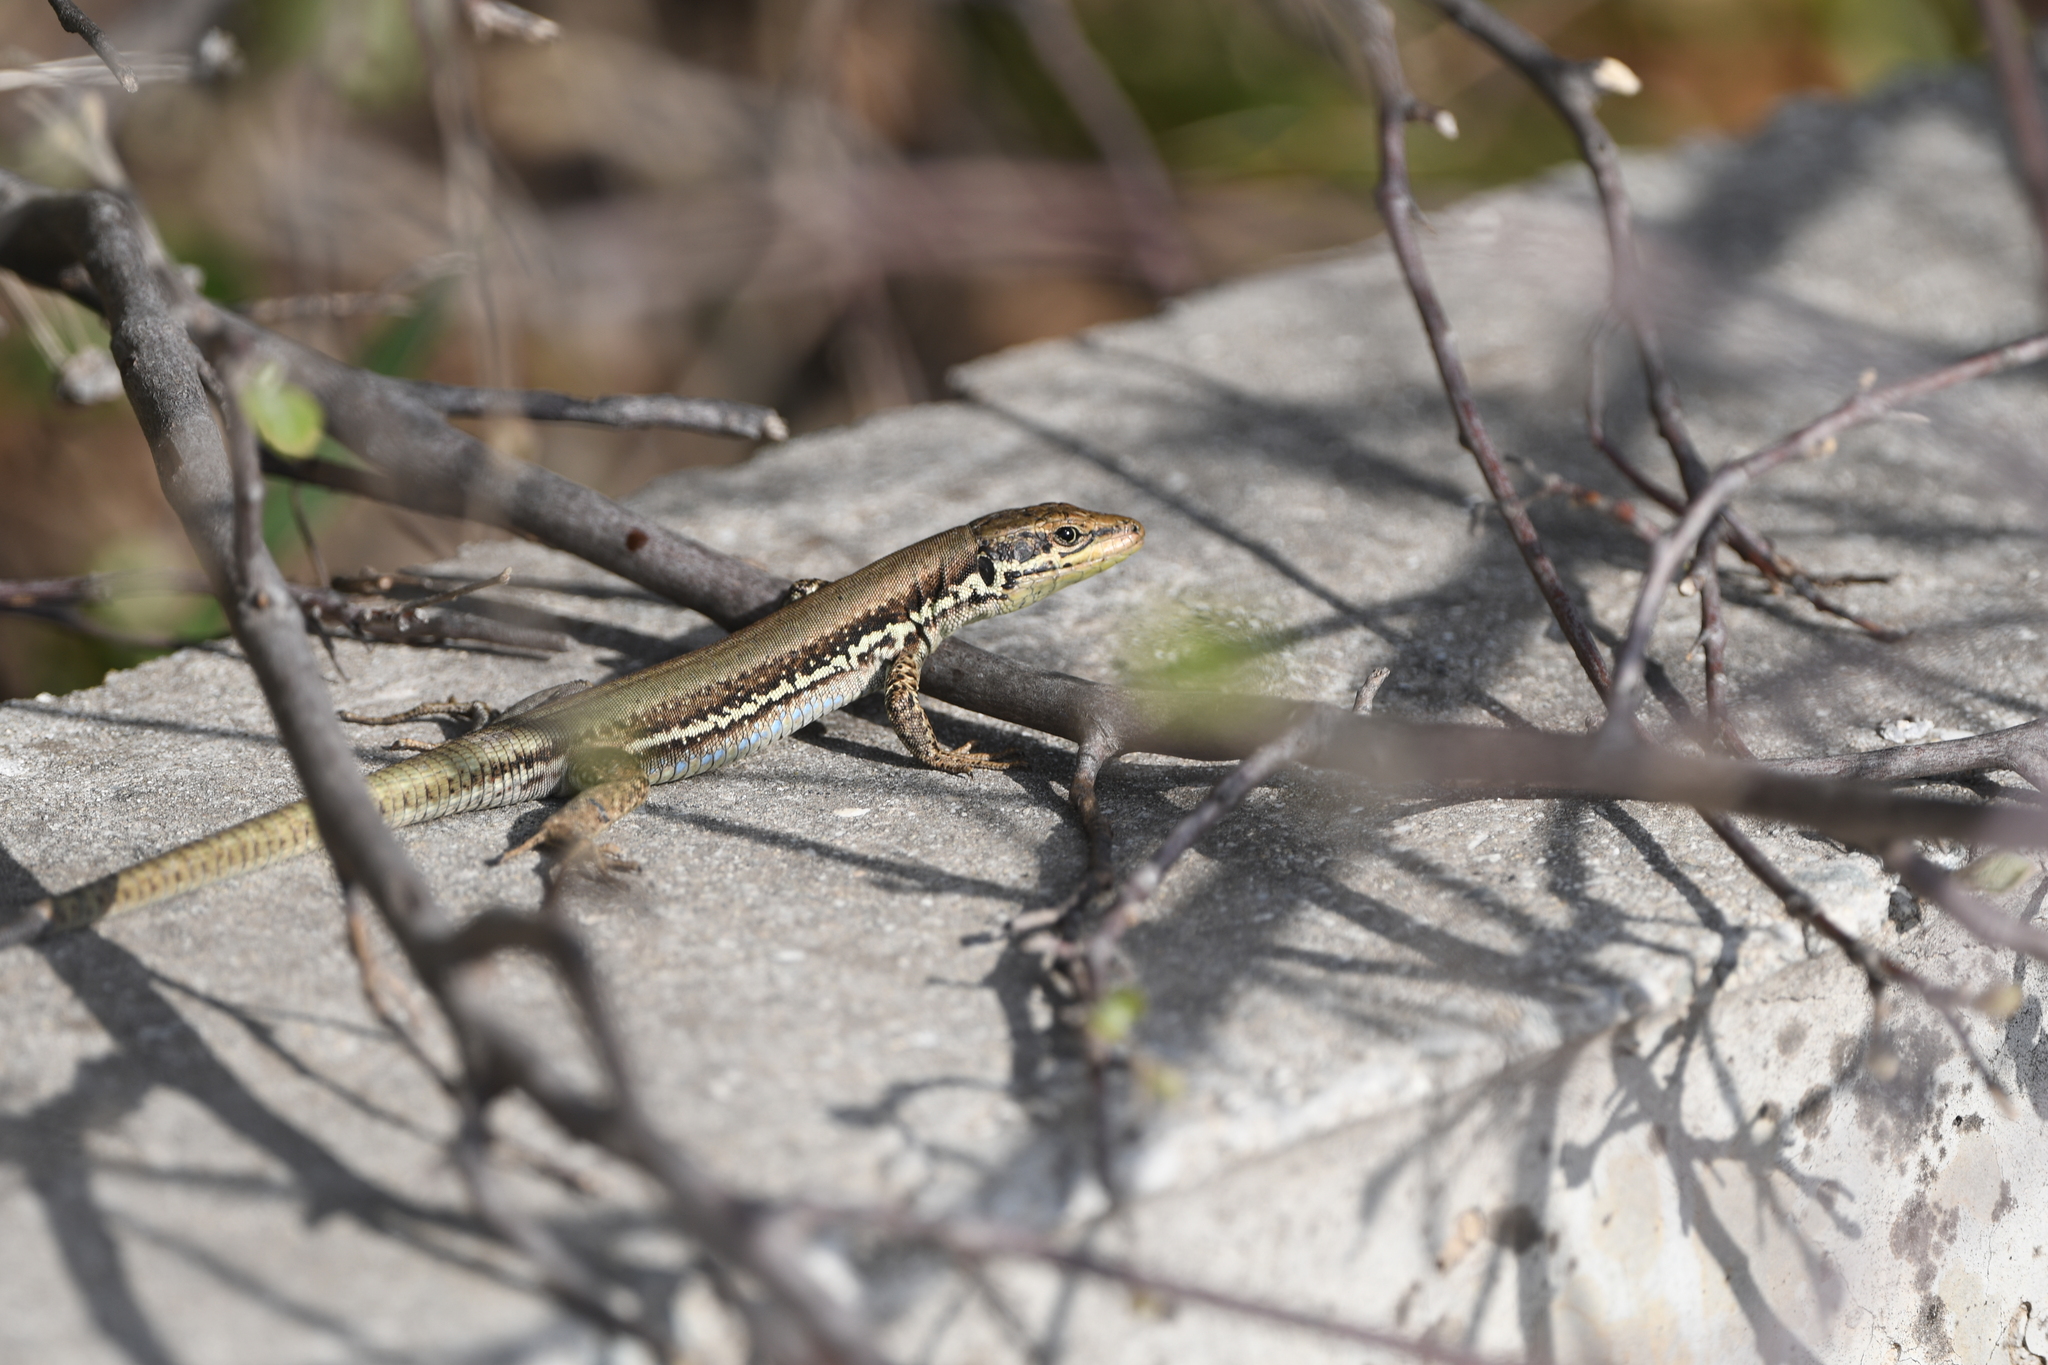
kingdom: Animalia
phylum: Chordata
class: Squamata
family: Lacertidae
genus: Phoenicolacerta
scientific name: Phoenicolacerta troodica
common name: Troodos wall lizard
